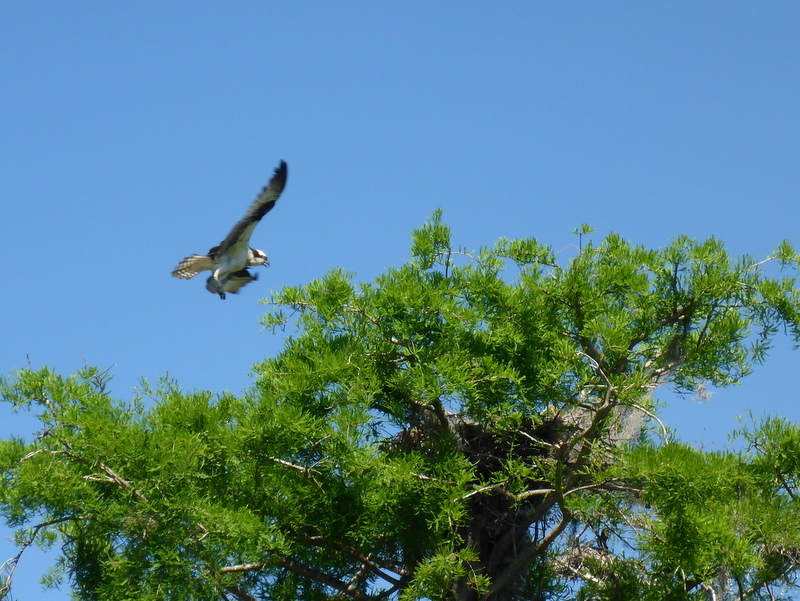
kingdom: Animalia
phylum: Chordata
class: Aves
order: Accipitriformes
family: Pandionidae
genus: Pandion
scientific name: Pandion haliaetus
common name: Osprey
